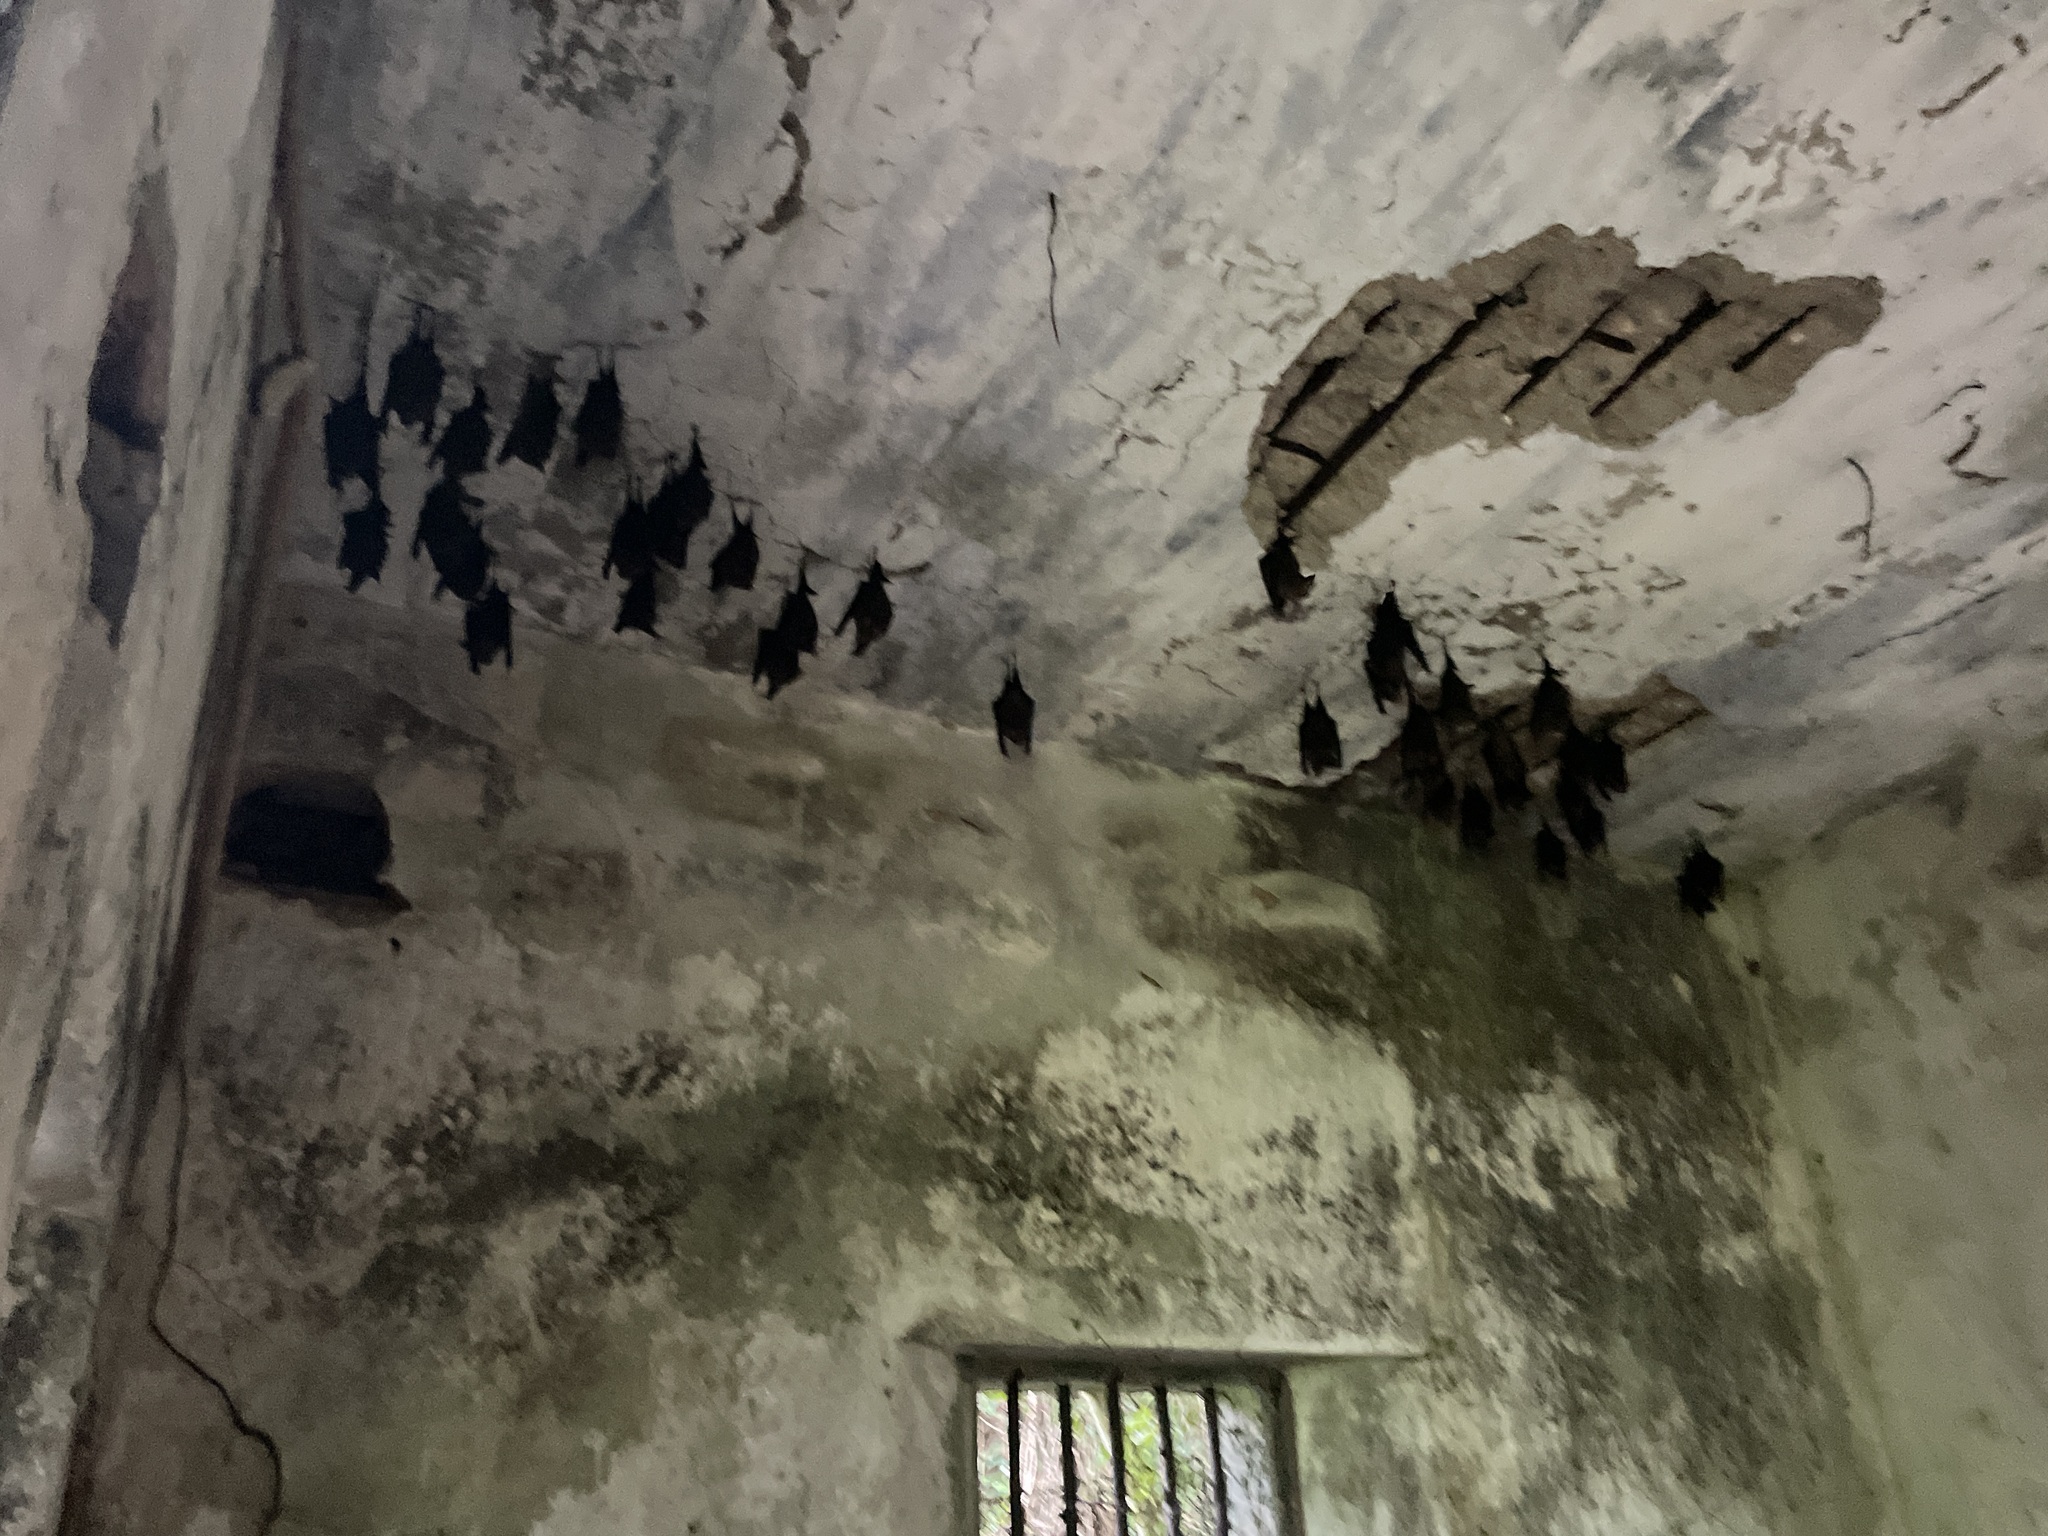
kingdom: Animalia
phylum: Chordata
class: Mammalia
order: Chiroptera
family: Hipposideridae
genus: Hipposideros
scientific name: Hipposideros armiger
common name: Great leaf-nosed bat
